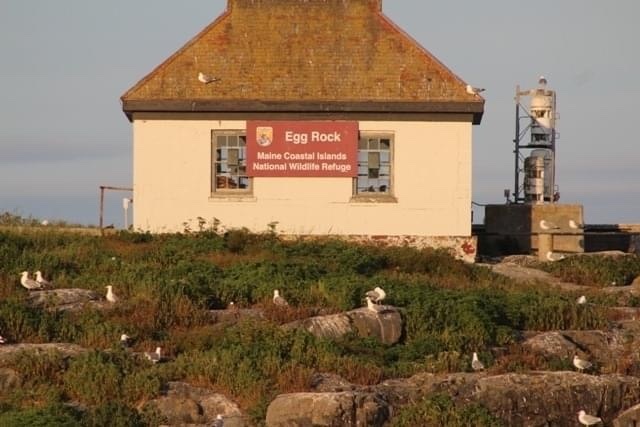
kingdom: Animalia
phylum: Chordata
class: Aves
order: Charadriiformes
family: Laridae
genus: Larus
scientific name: Larus smithsonianus
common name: American herring gull
